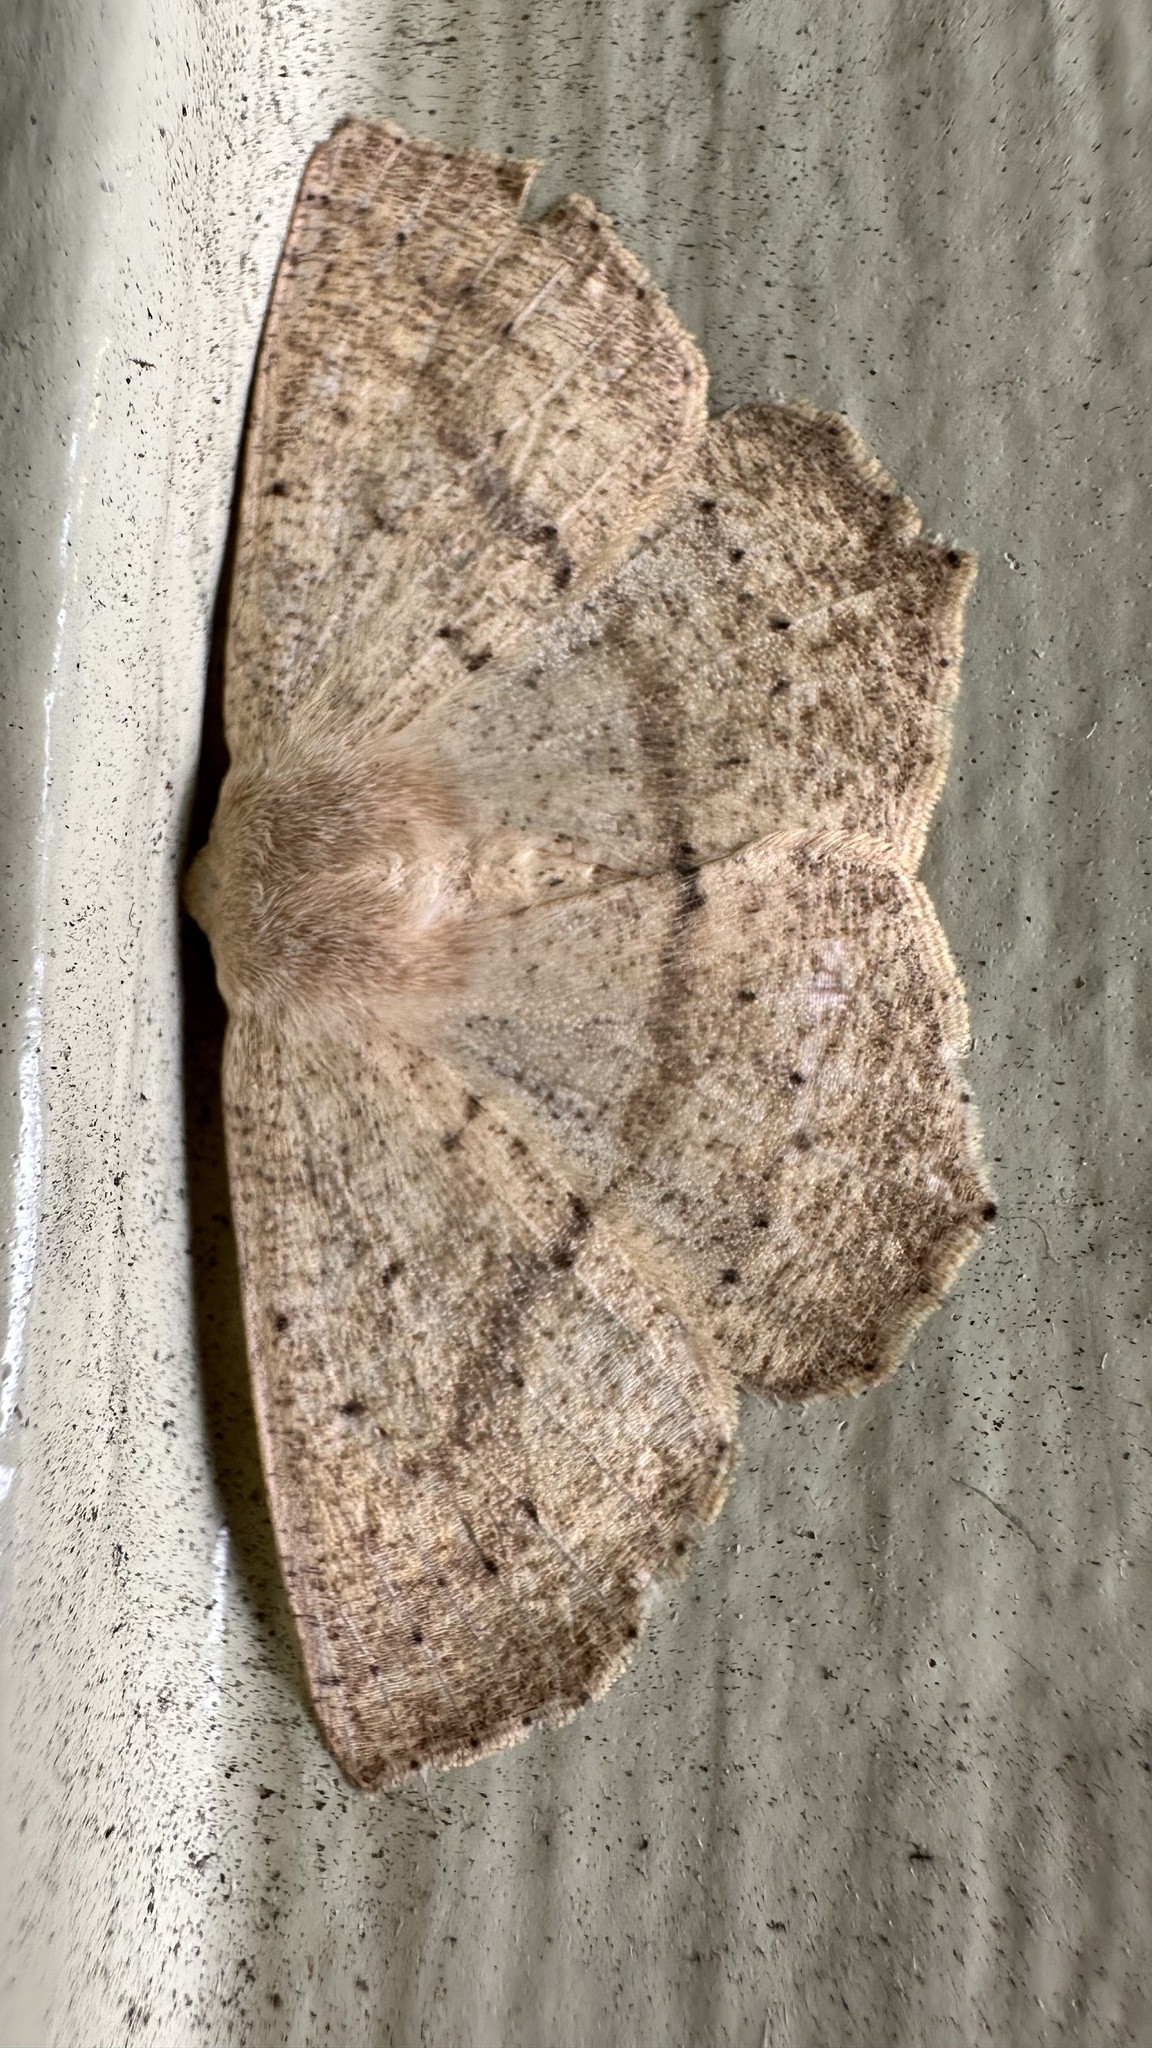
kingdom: Animalia
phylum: Arthropoda
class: Insecta
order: Lepidoptera
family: Geometridae
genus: Sabulodes
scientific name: Sabulodes aegrotata
